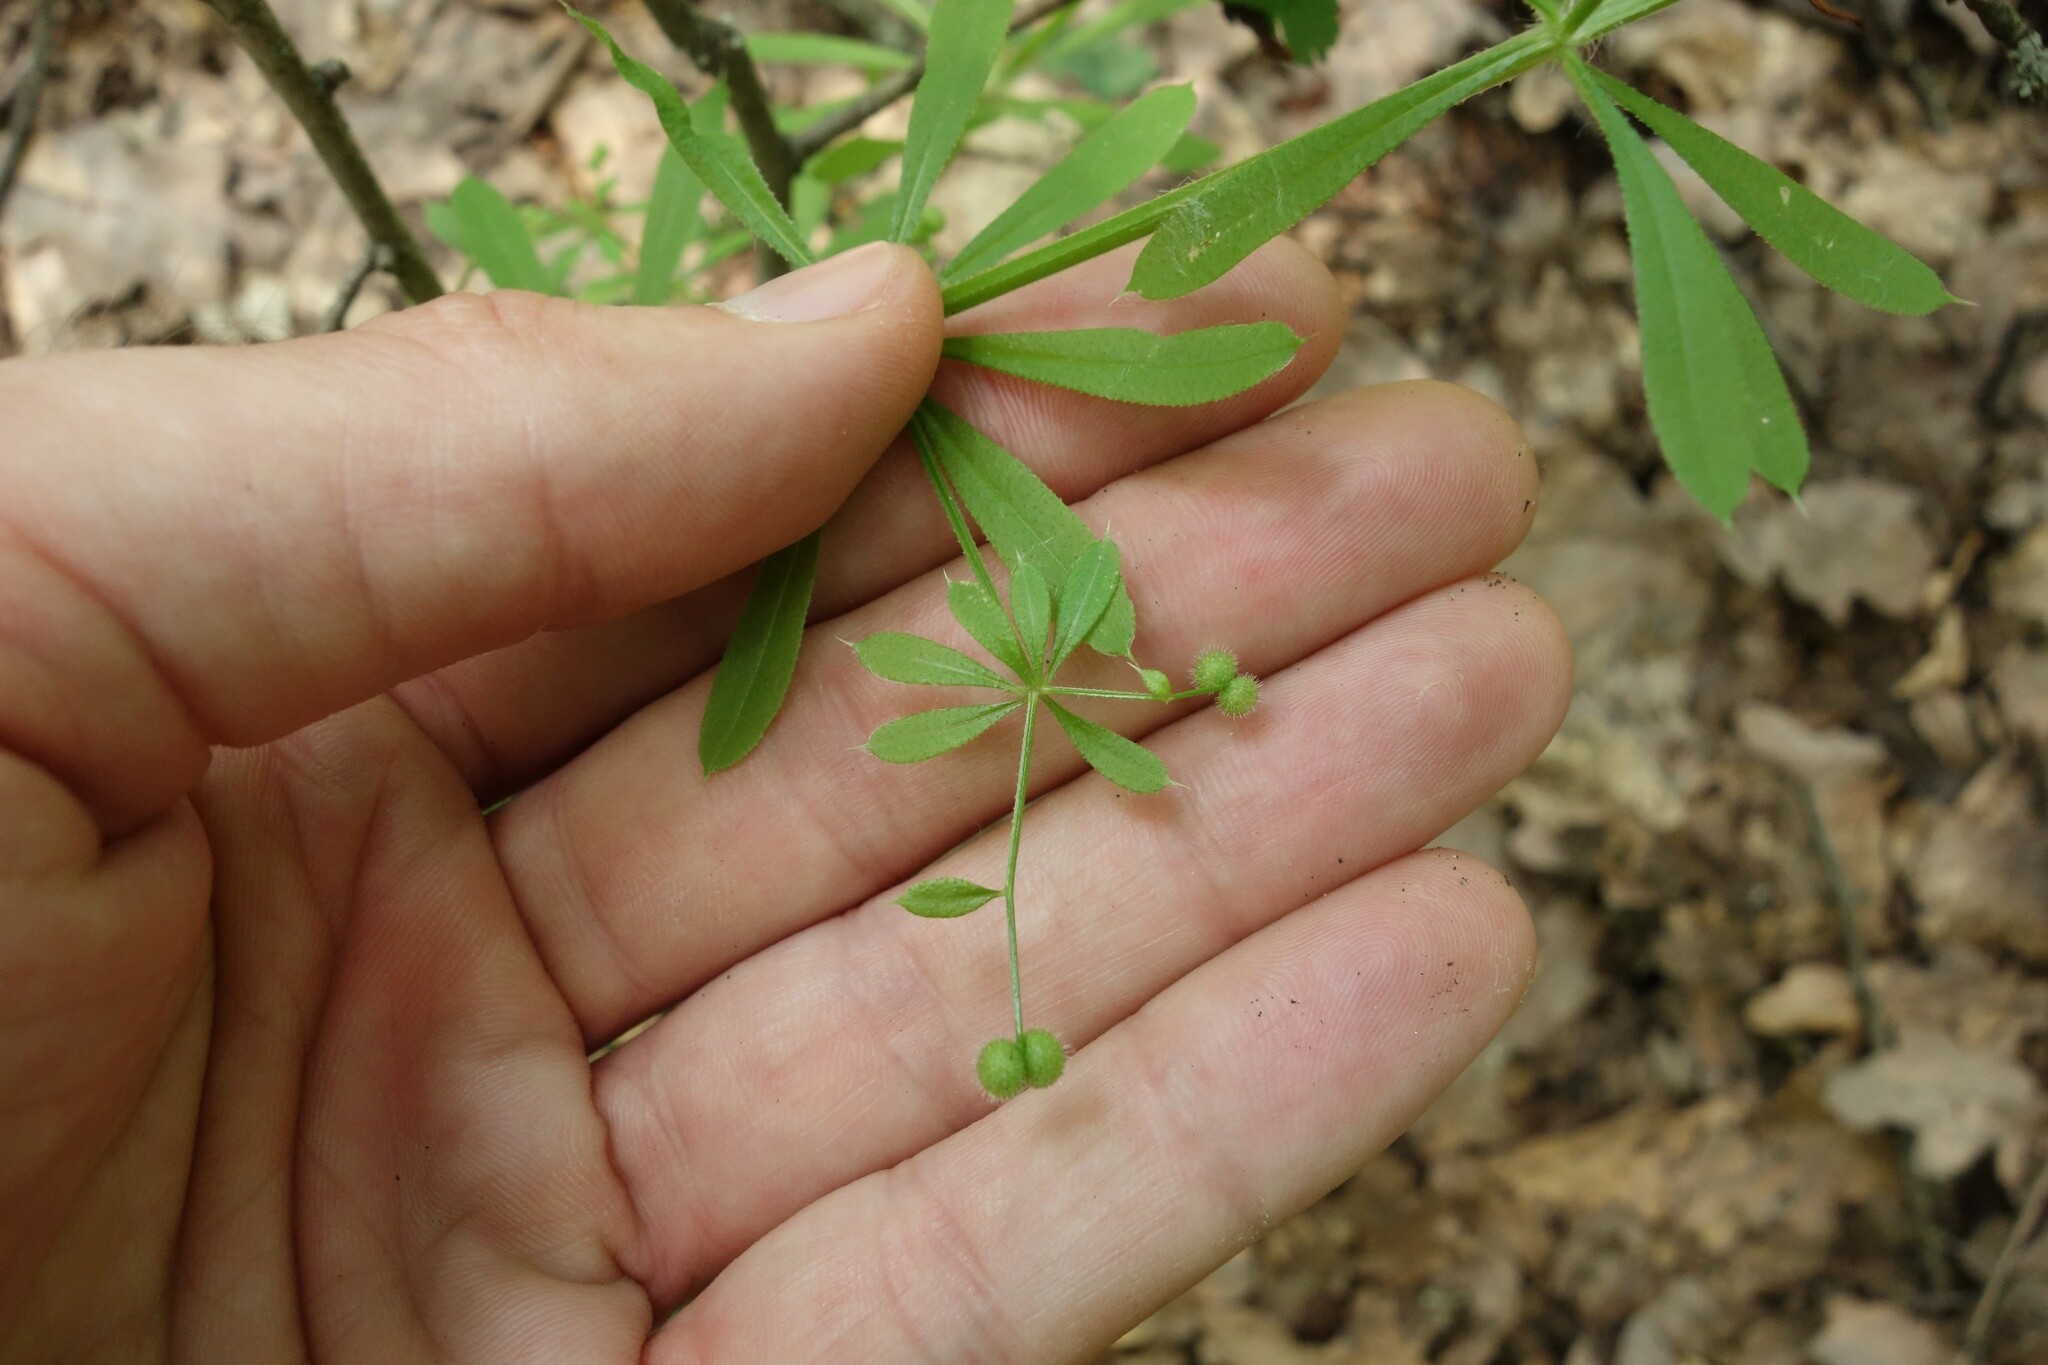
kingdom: Plantae
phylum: Tracheophyta
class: Magnoliopsida
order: Gentianales
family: Rubiaceae
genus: Galium
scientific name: Galium aparine
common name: Cleavers
